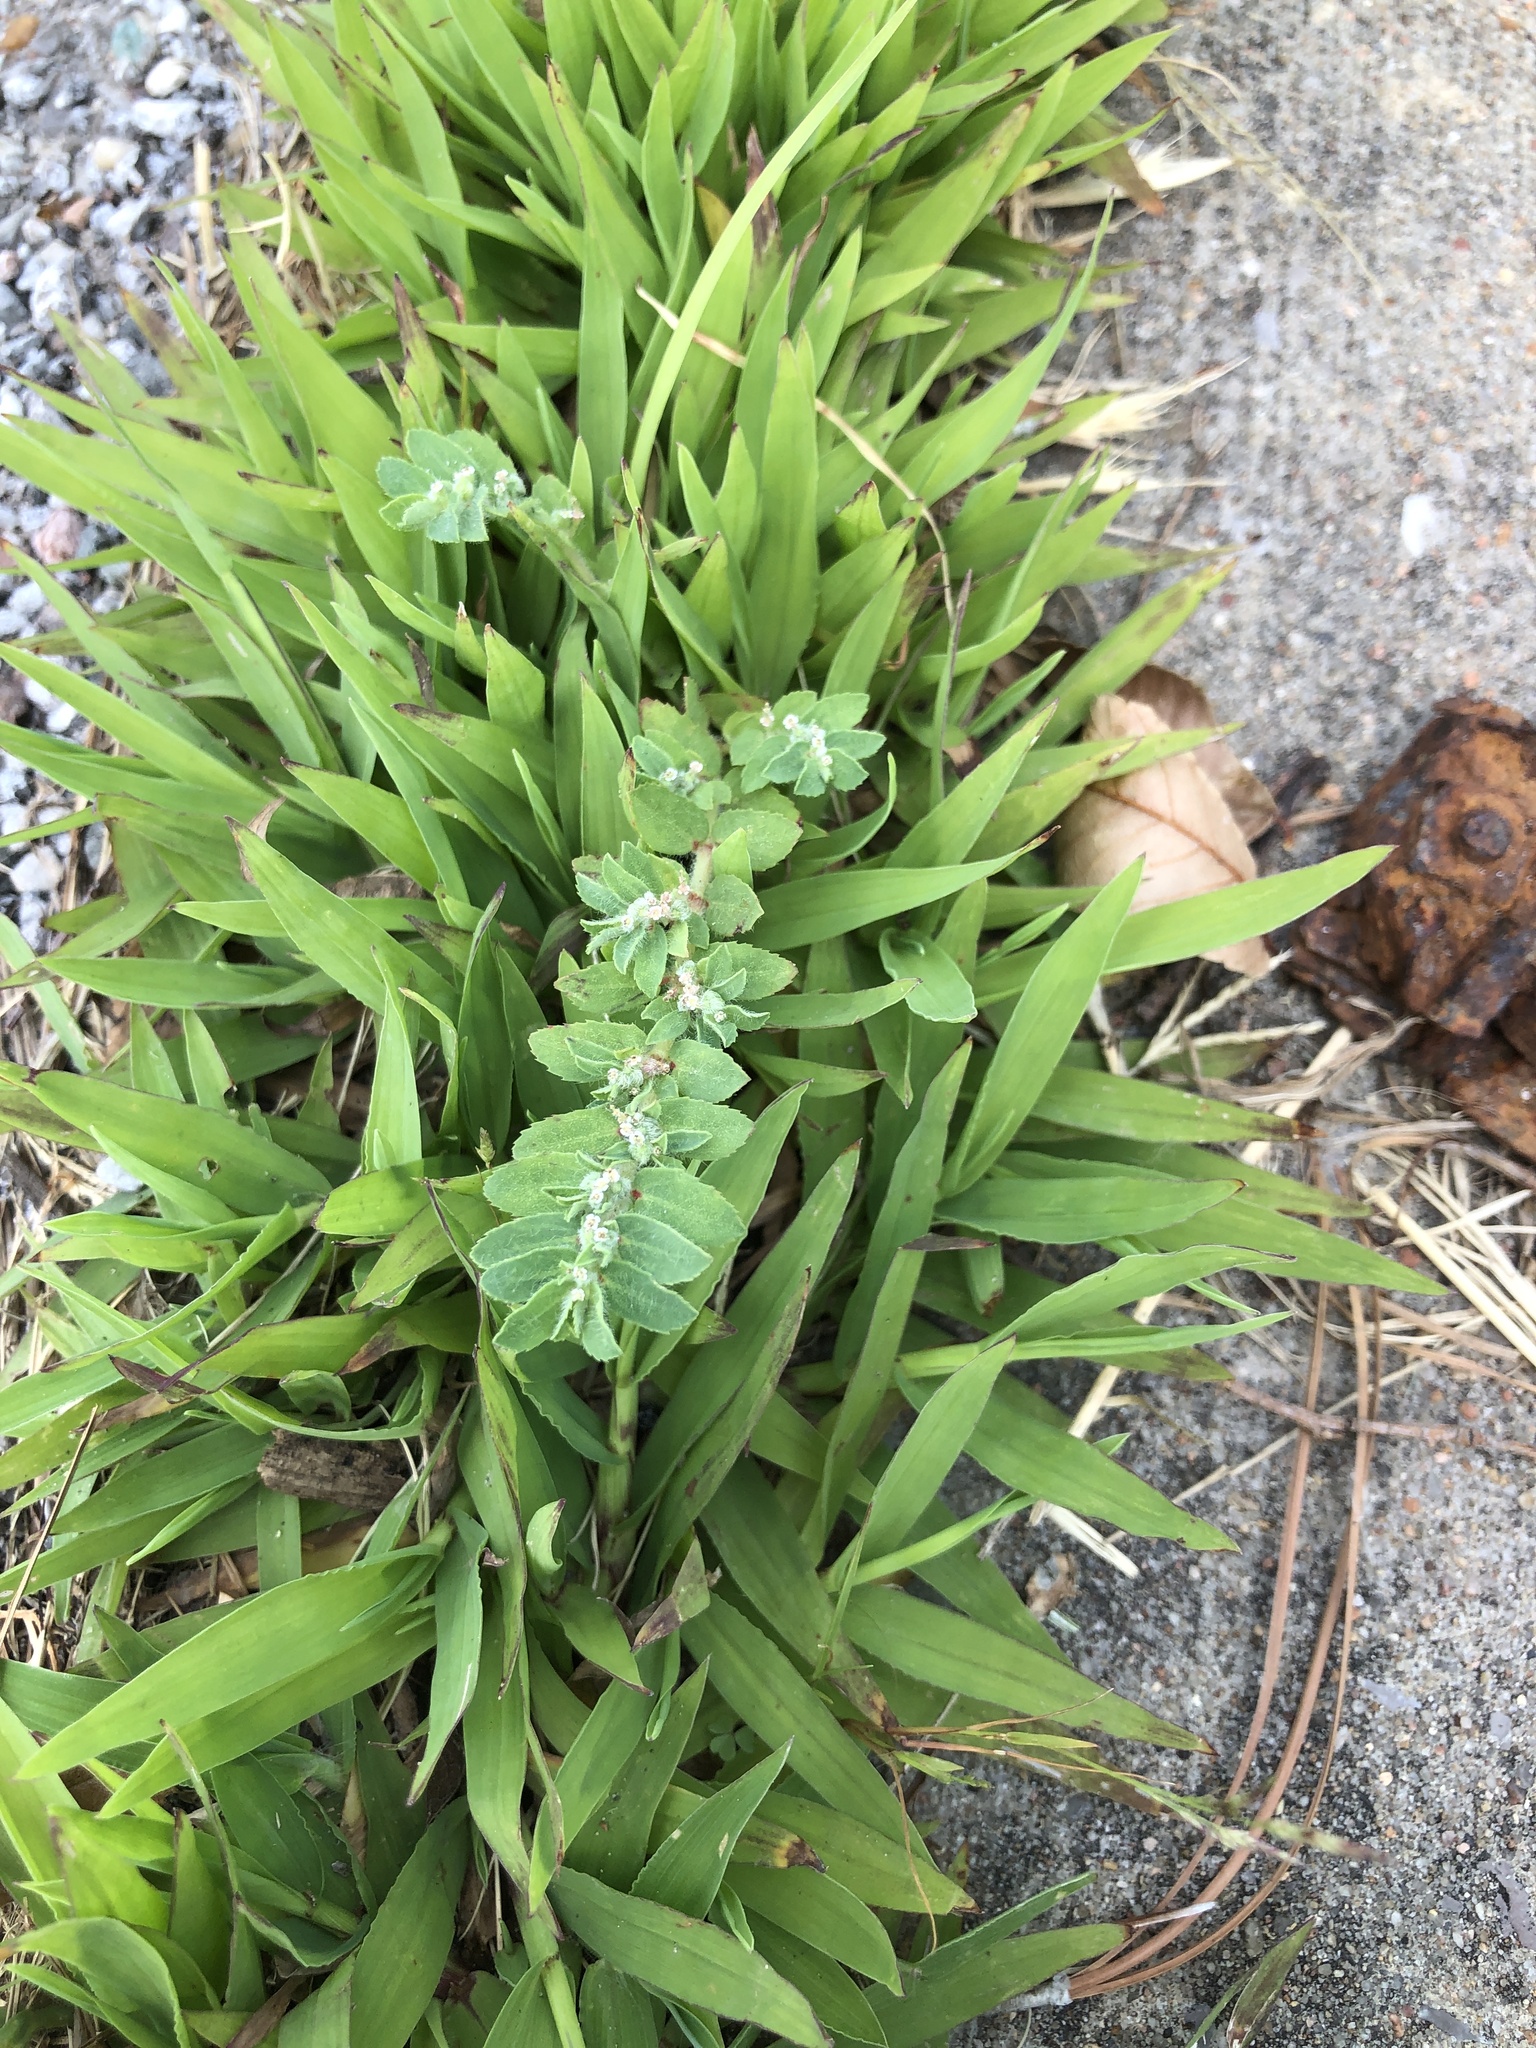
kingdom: Plantae
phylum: Tracheophyta
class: Magnoliopsida
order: Malpighiales
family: Euphorbiaceae
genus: Euphorbia
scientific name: Euphorbia stictospora
